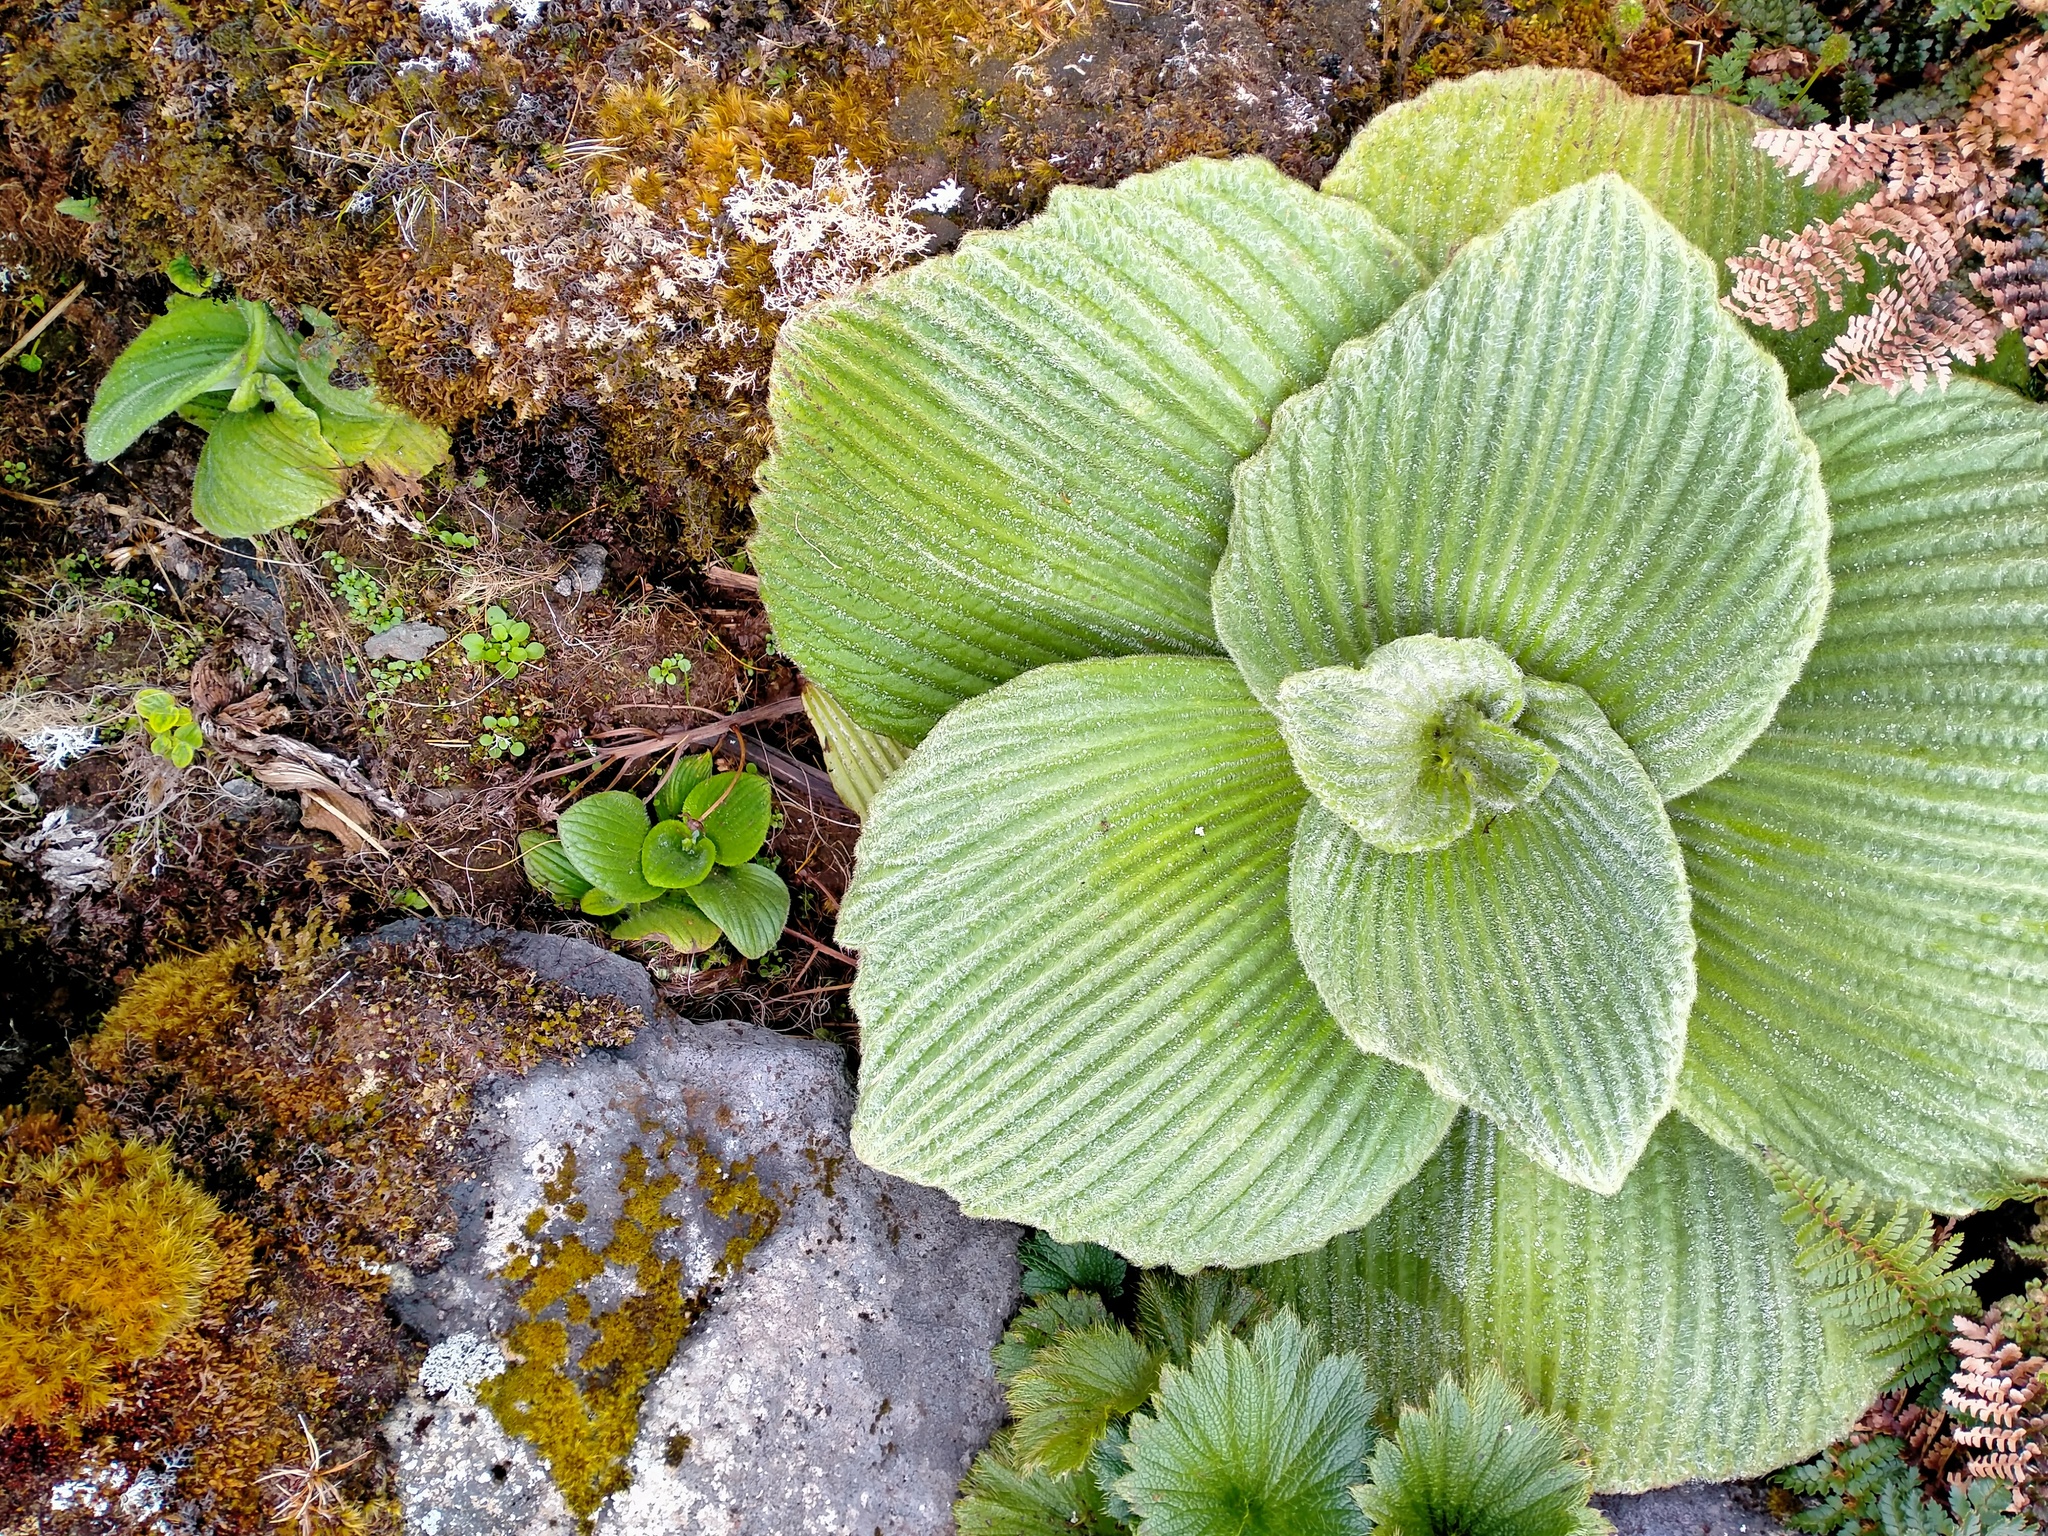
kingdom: Plantae
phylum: Tracheophyta
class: Magnoliopsida
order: Asterales
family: Asteraceae
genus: Pleurophyllum
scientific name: Pleurophyllum speciosum
